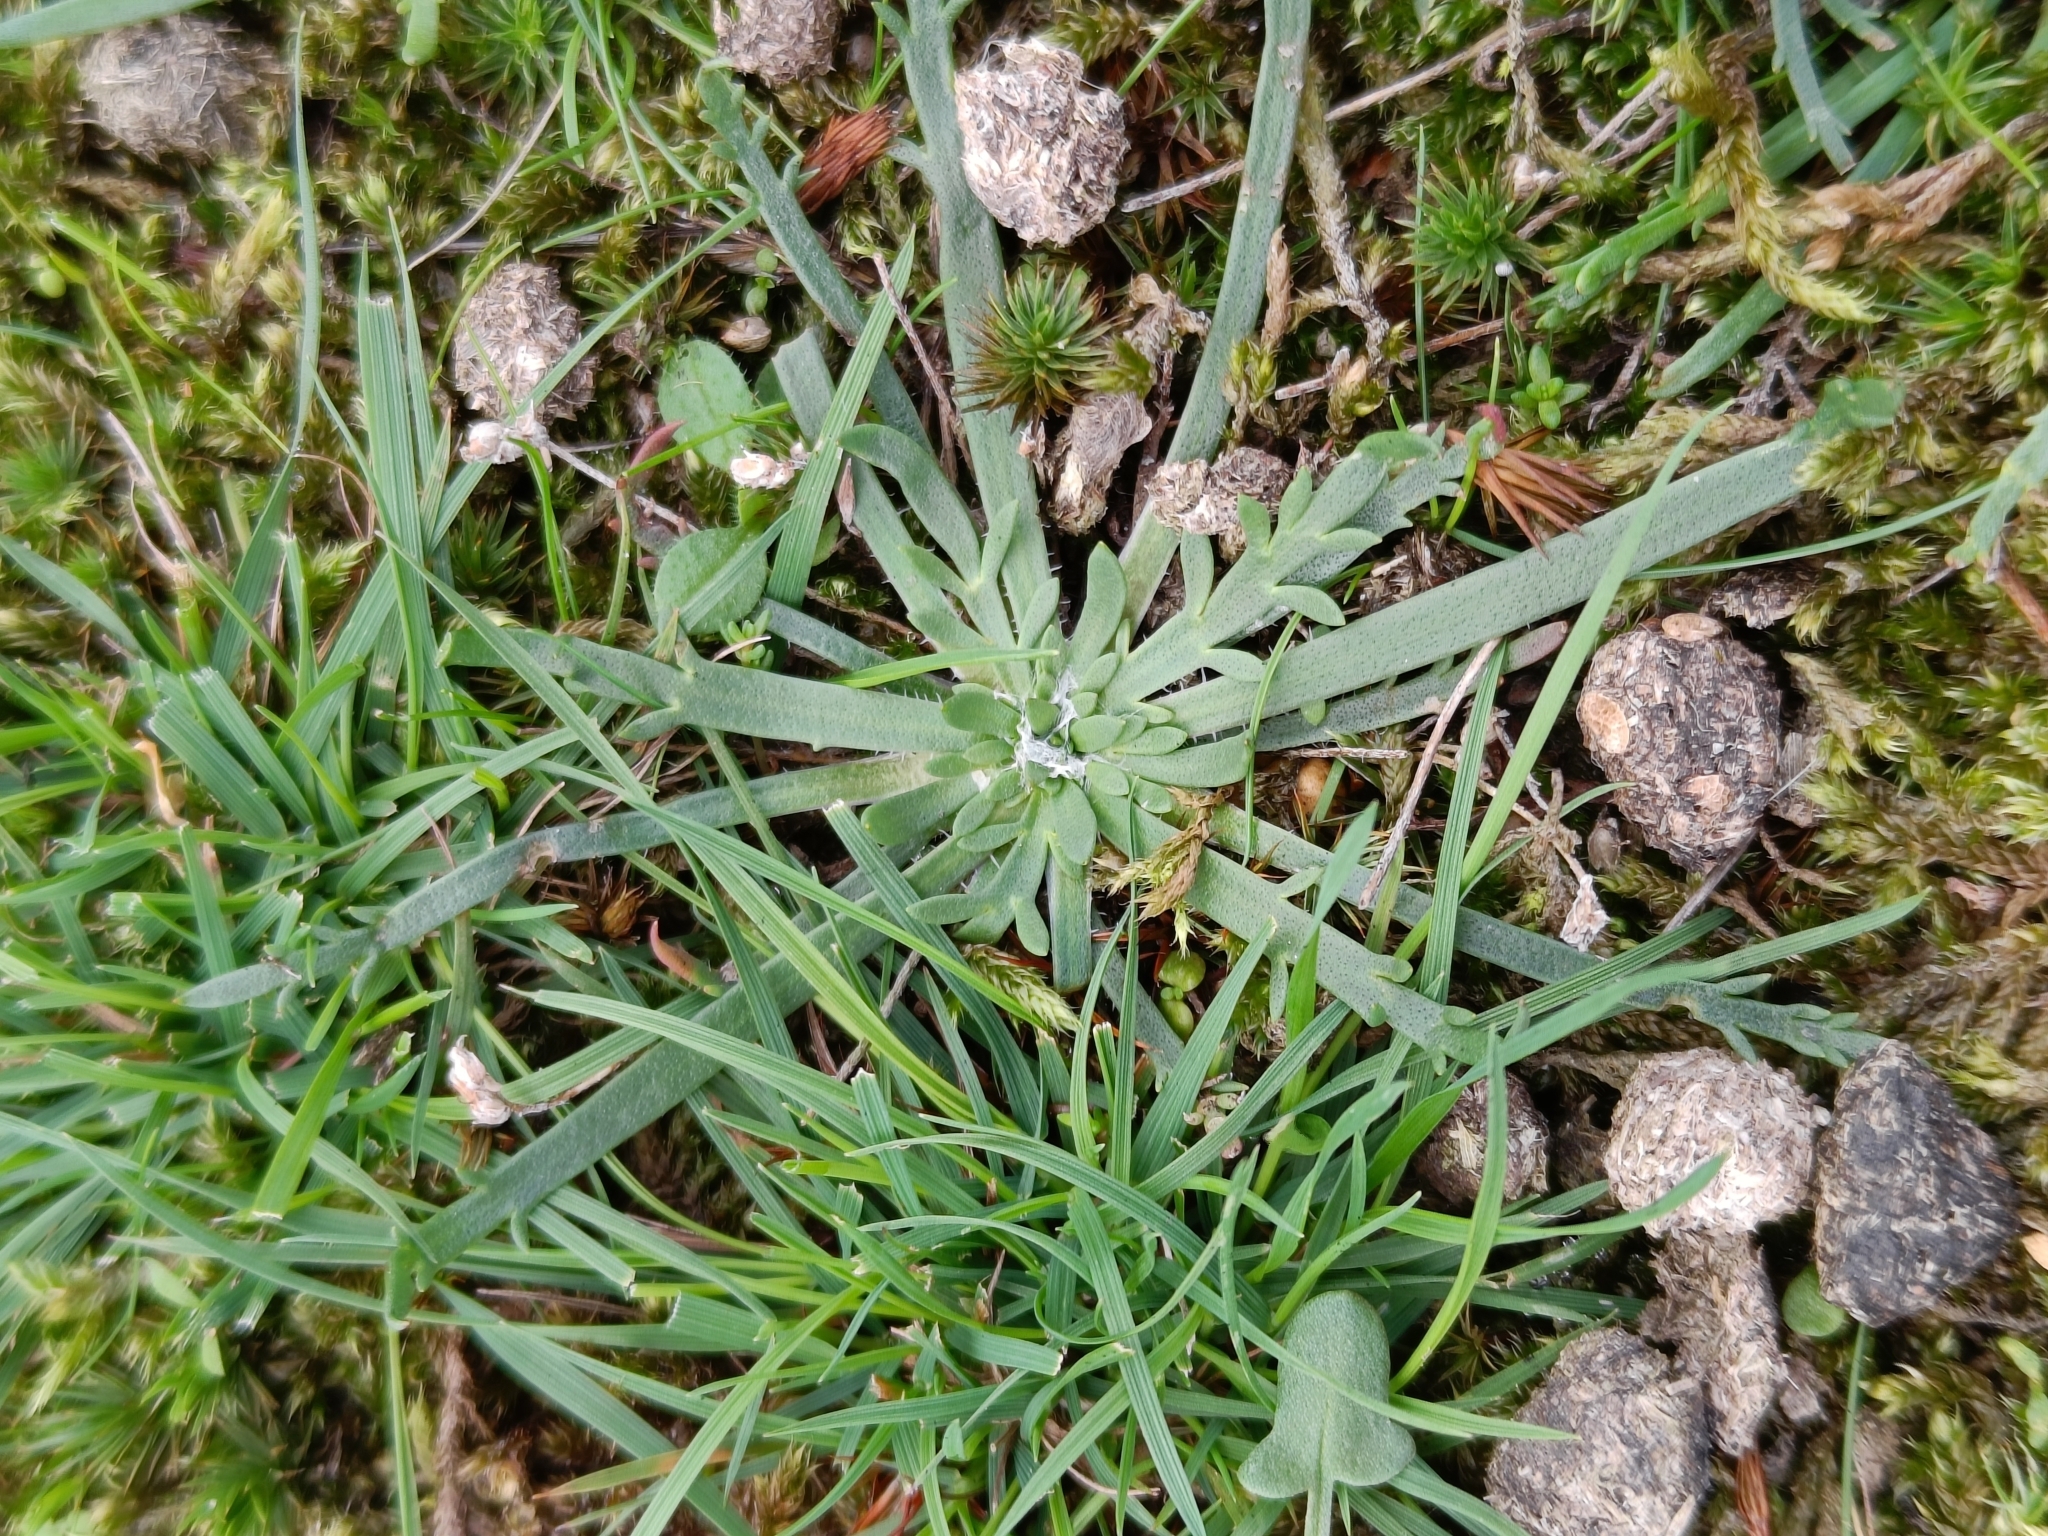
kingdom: Plantae
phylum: Tracheophyta
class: Magnoliopsida
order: Lamiales
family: Plantaginaceae
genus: Plantago
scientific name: Plantago coronopus
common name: Buck's-horn plantain
